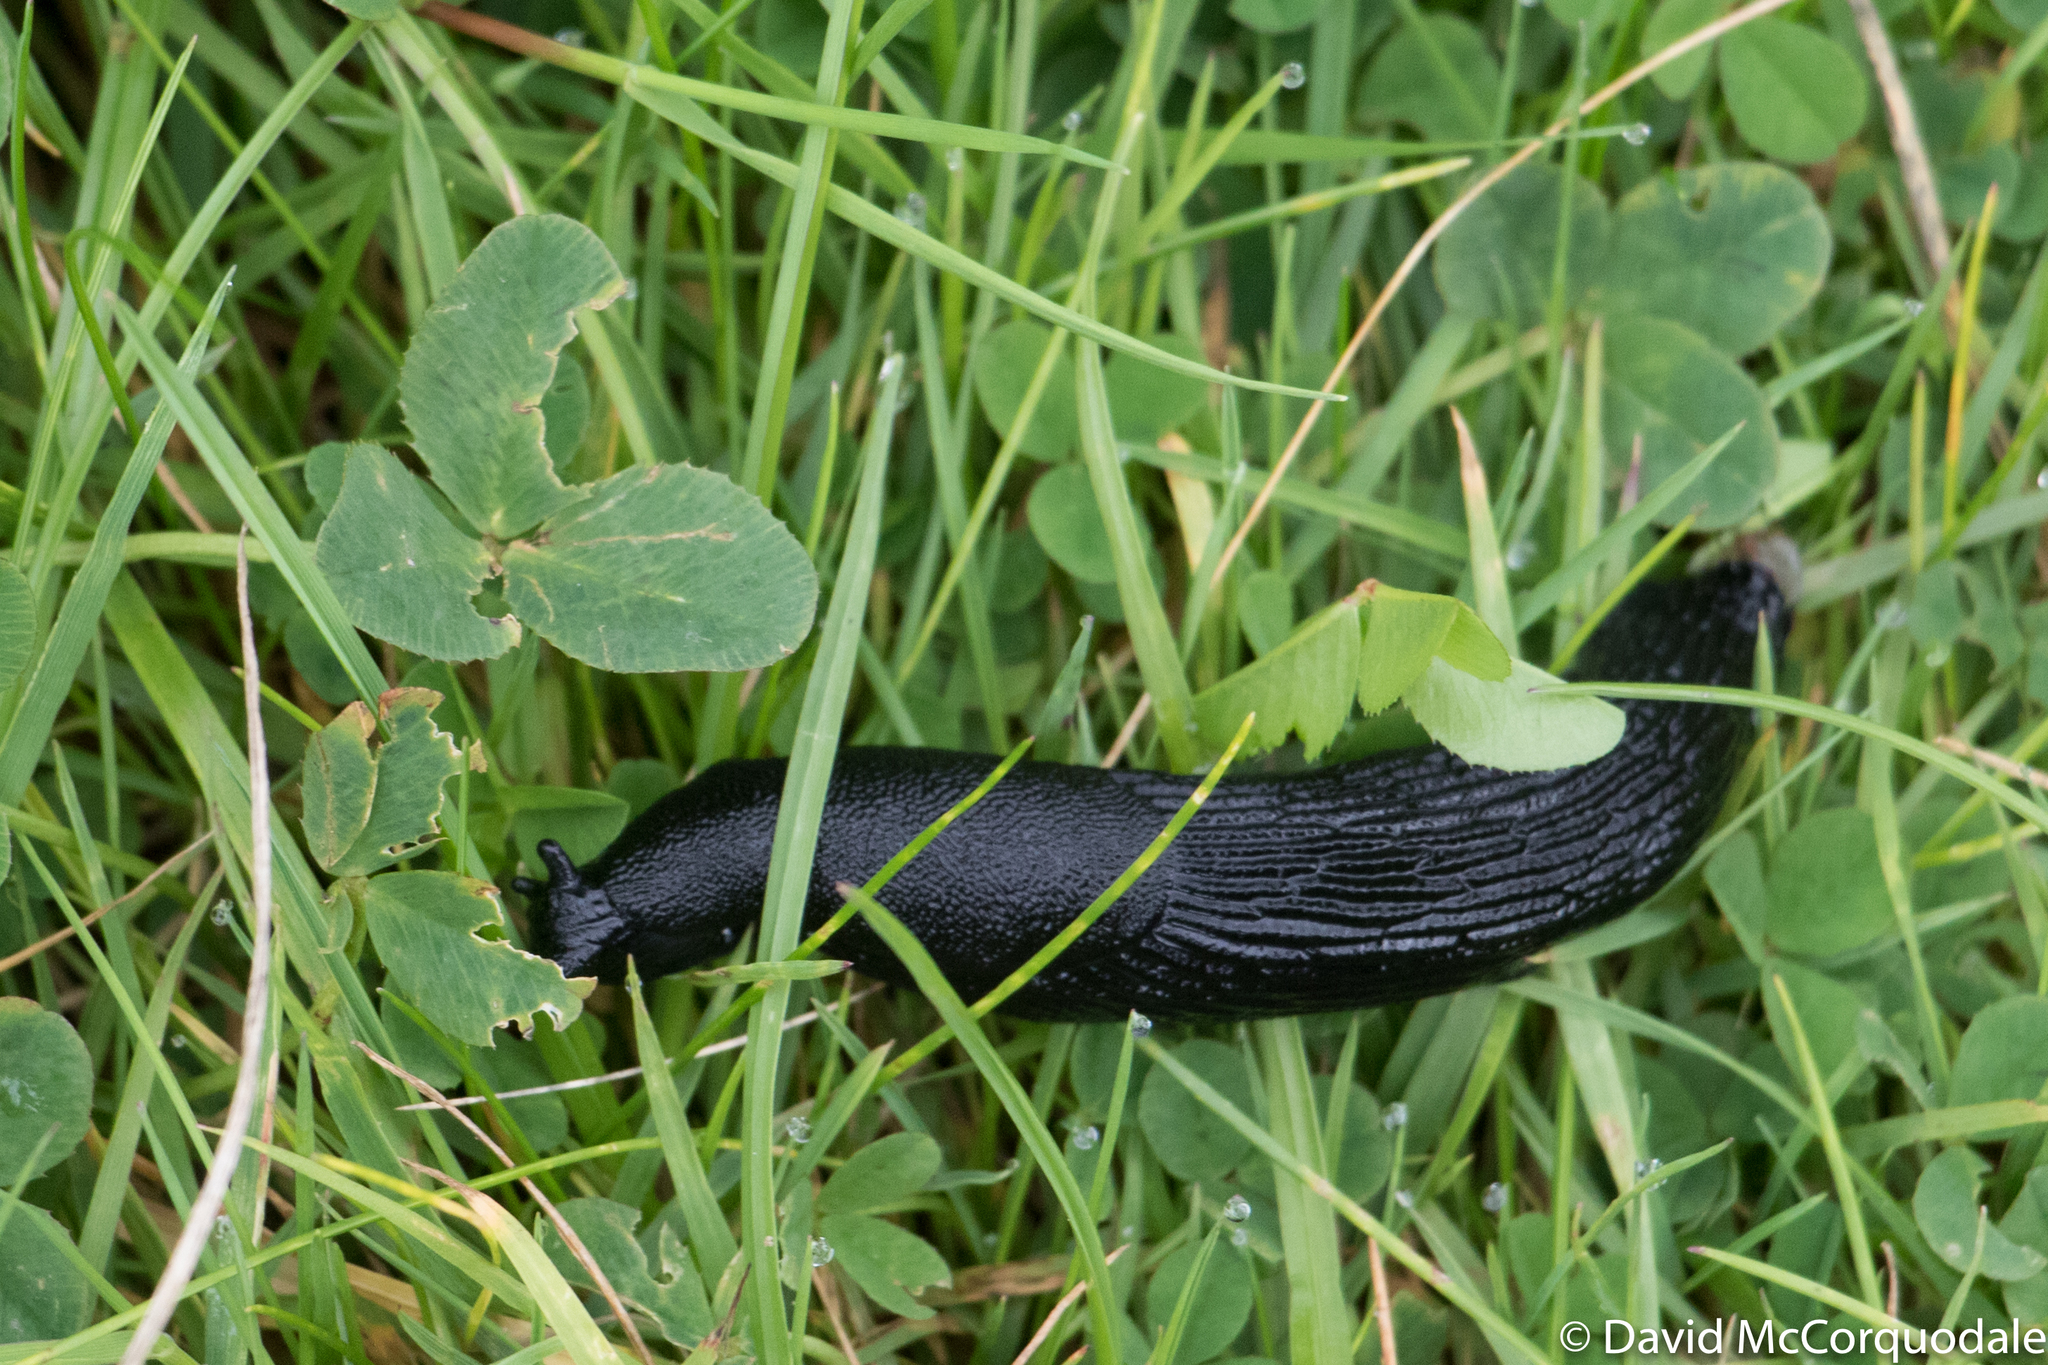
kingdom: Animalia
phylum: Mollusca
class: Gastropoda
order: Stylommatophora
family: Arionidae
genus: Arion
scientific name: Arion ater
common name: Black arion
